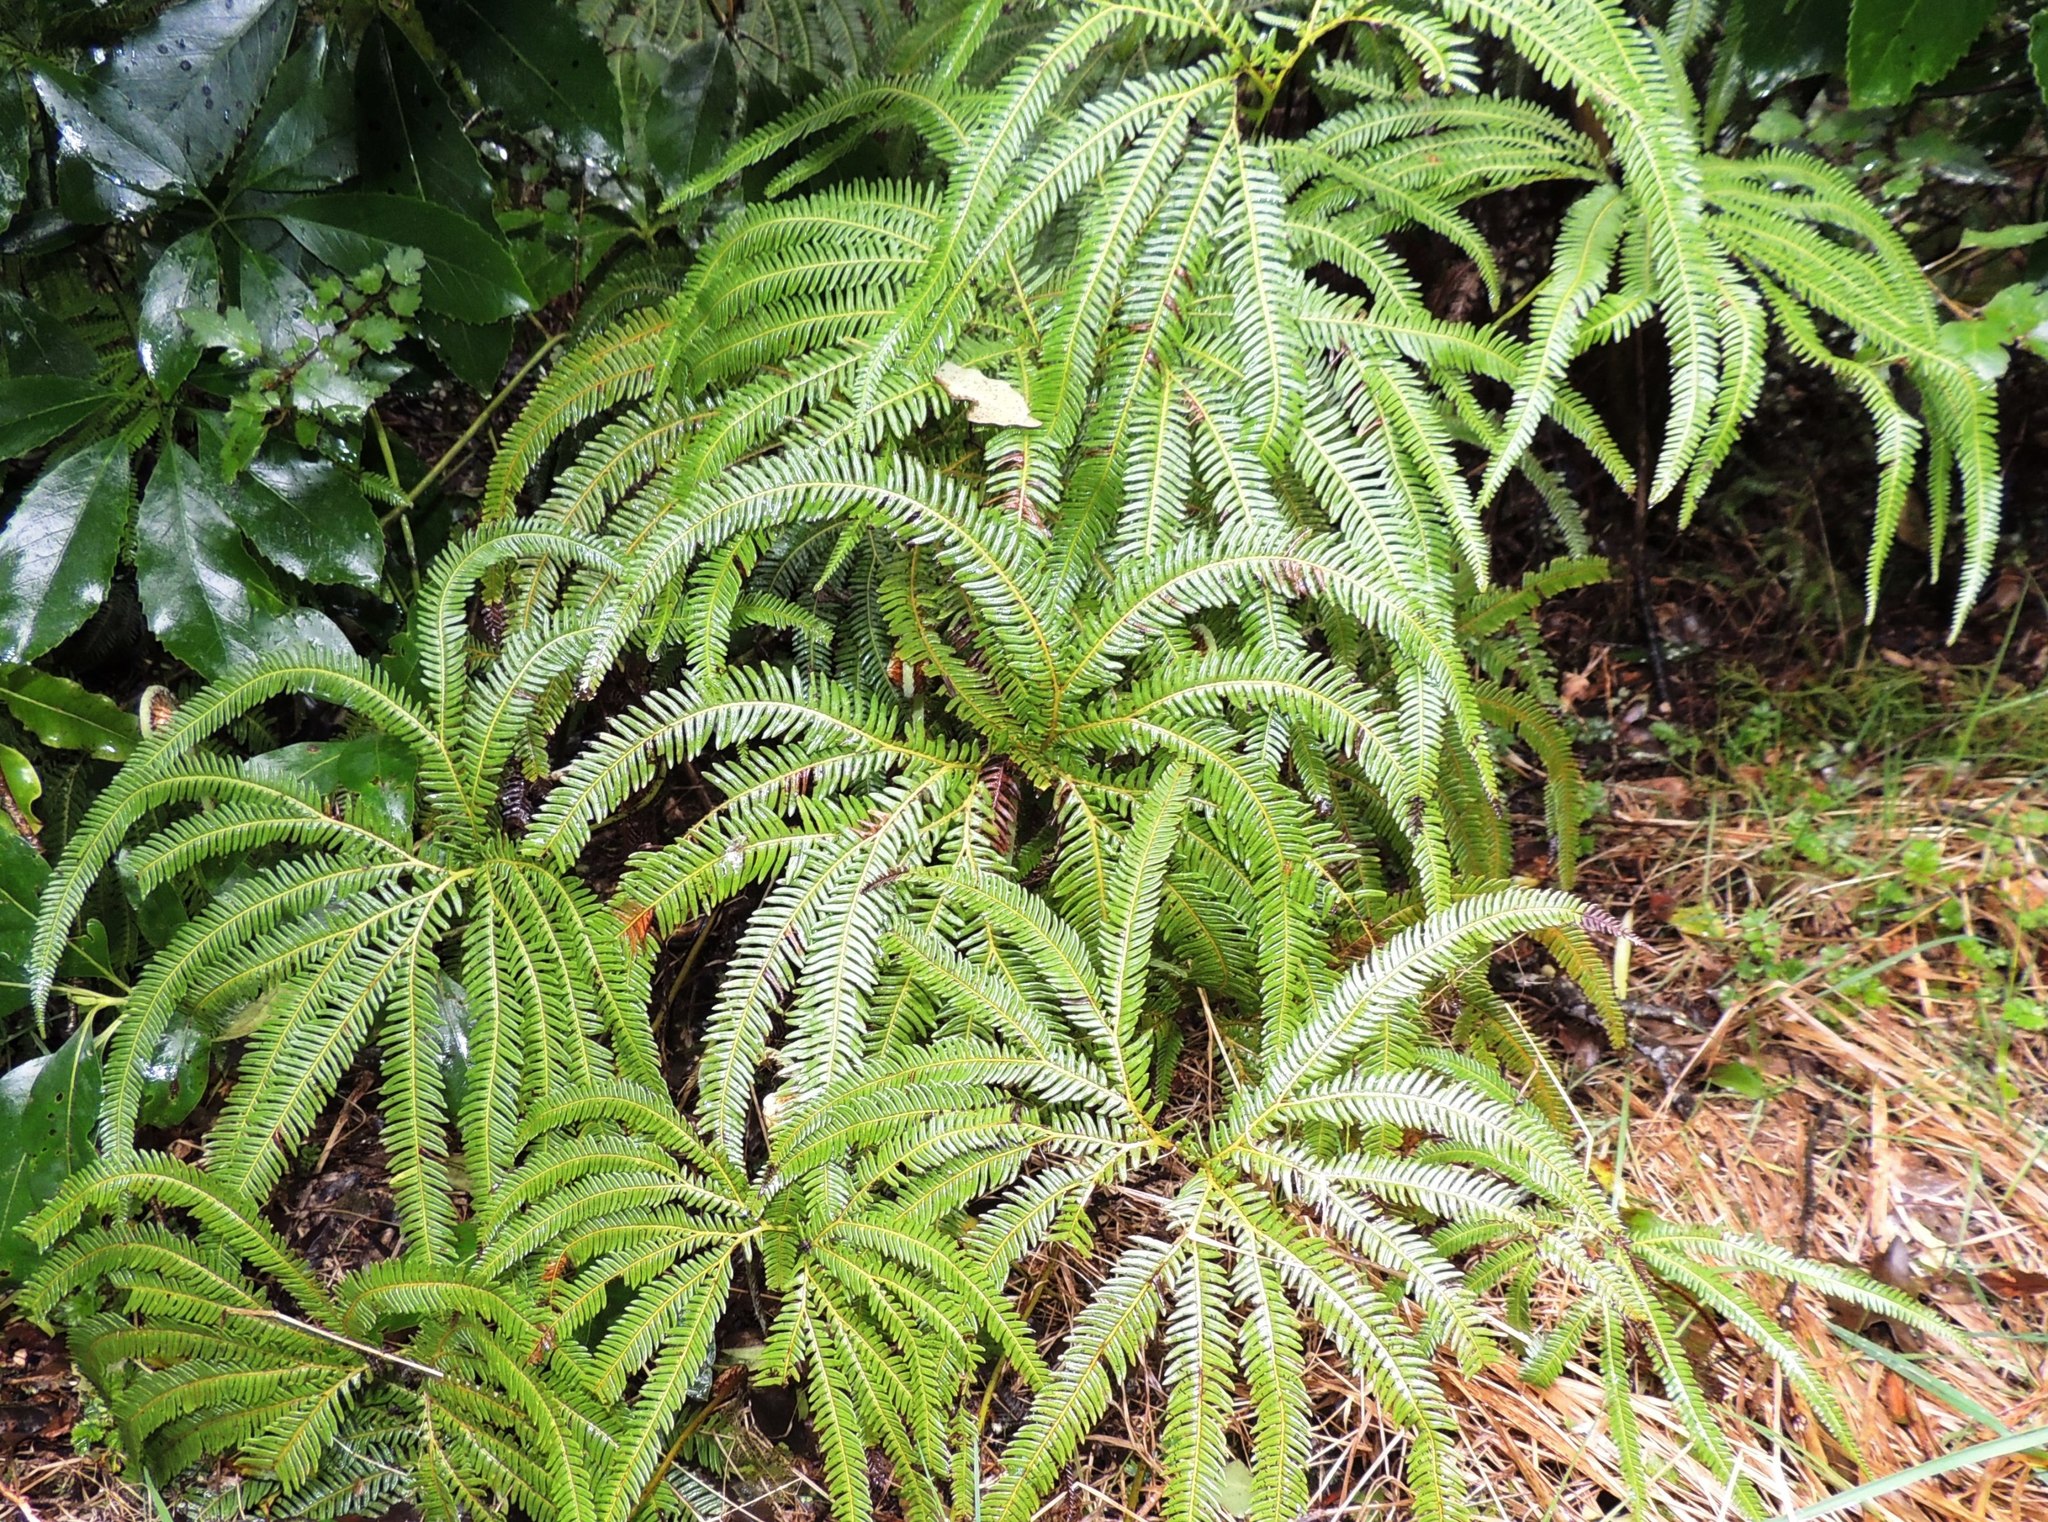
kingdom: Plantae
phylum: Tracheophyta
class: Polypodiopsida
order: Gleicheniales
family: Gleicheniaceae
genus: Sticherus
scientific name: Sticherus cunninghamii
